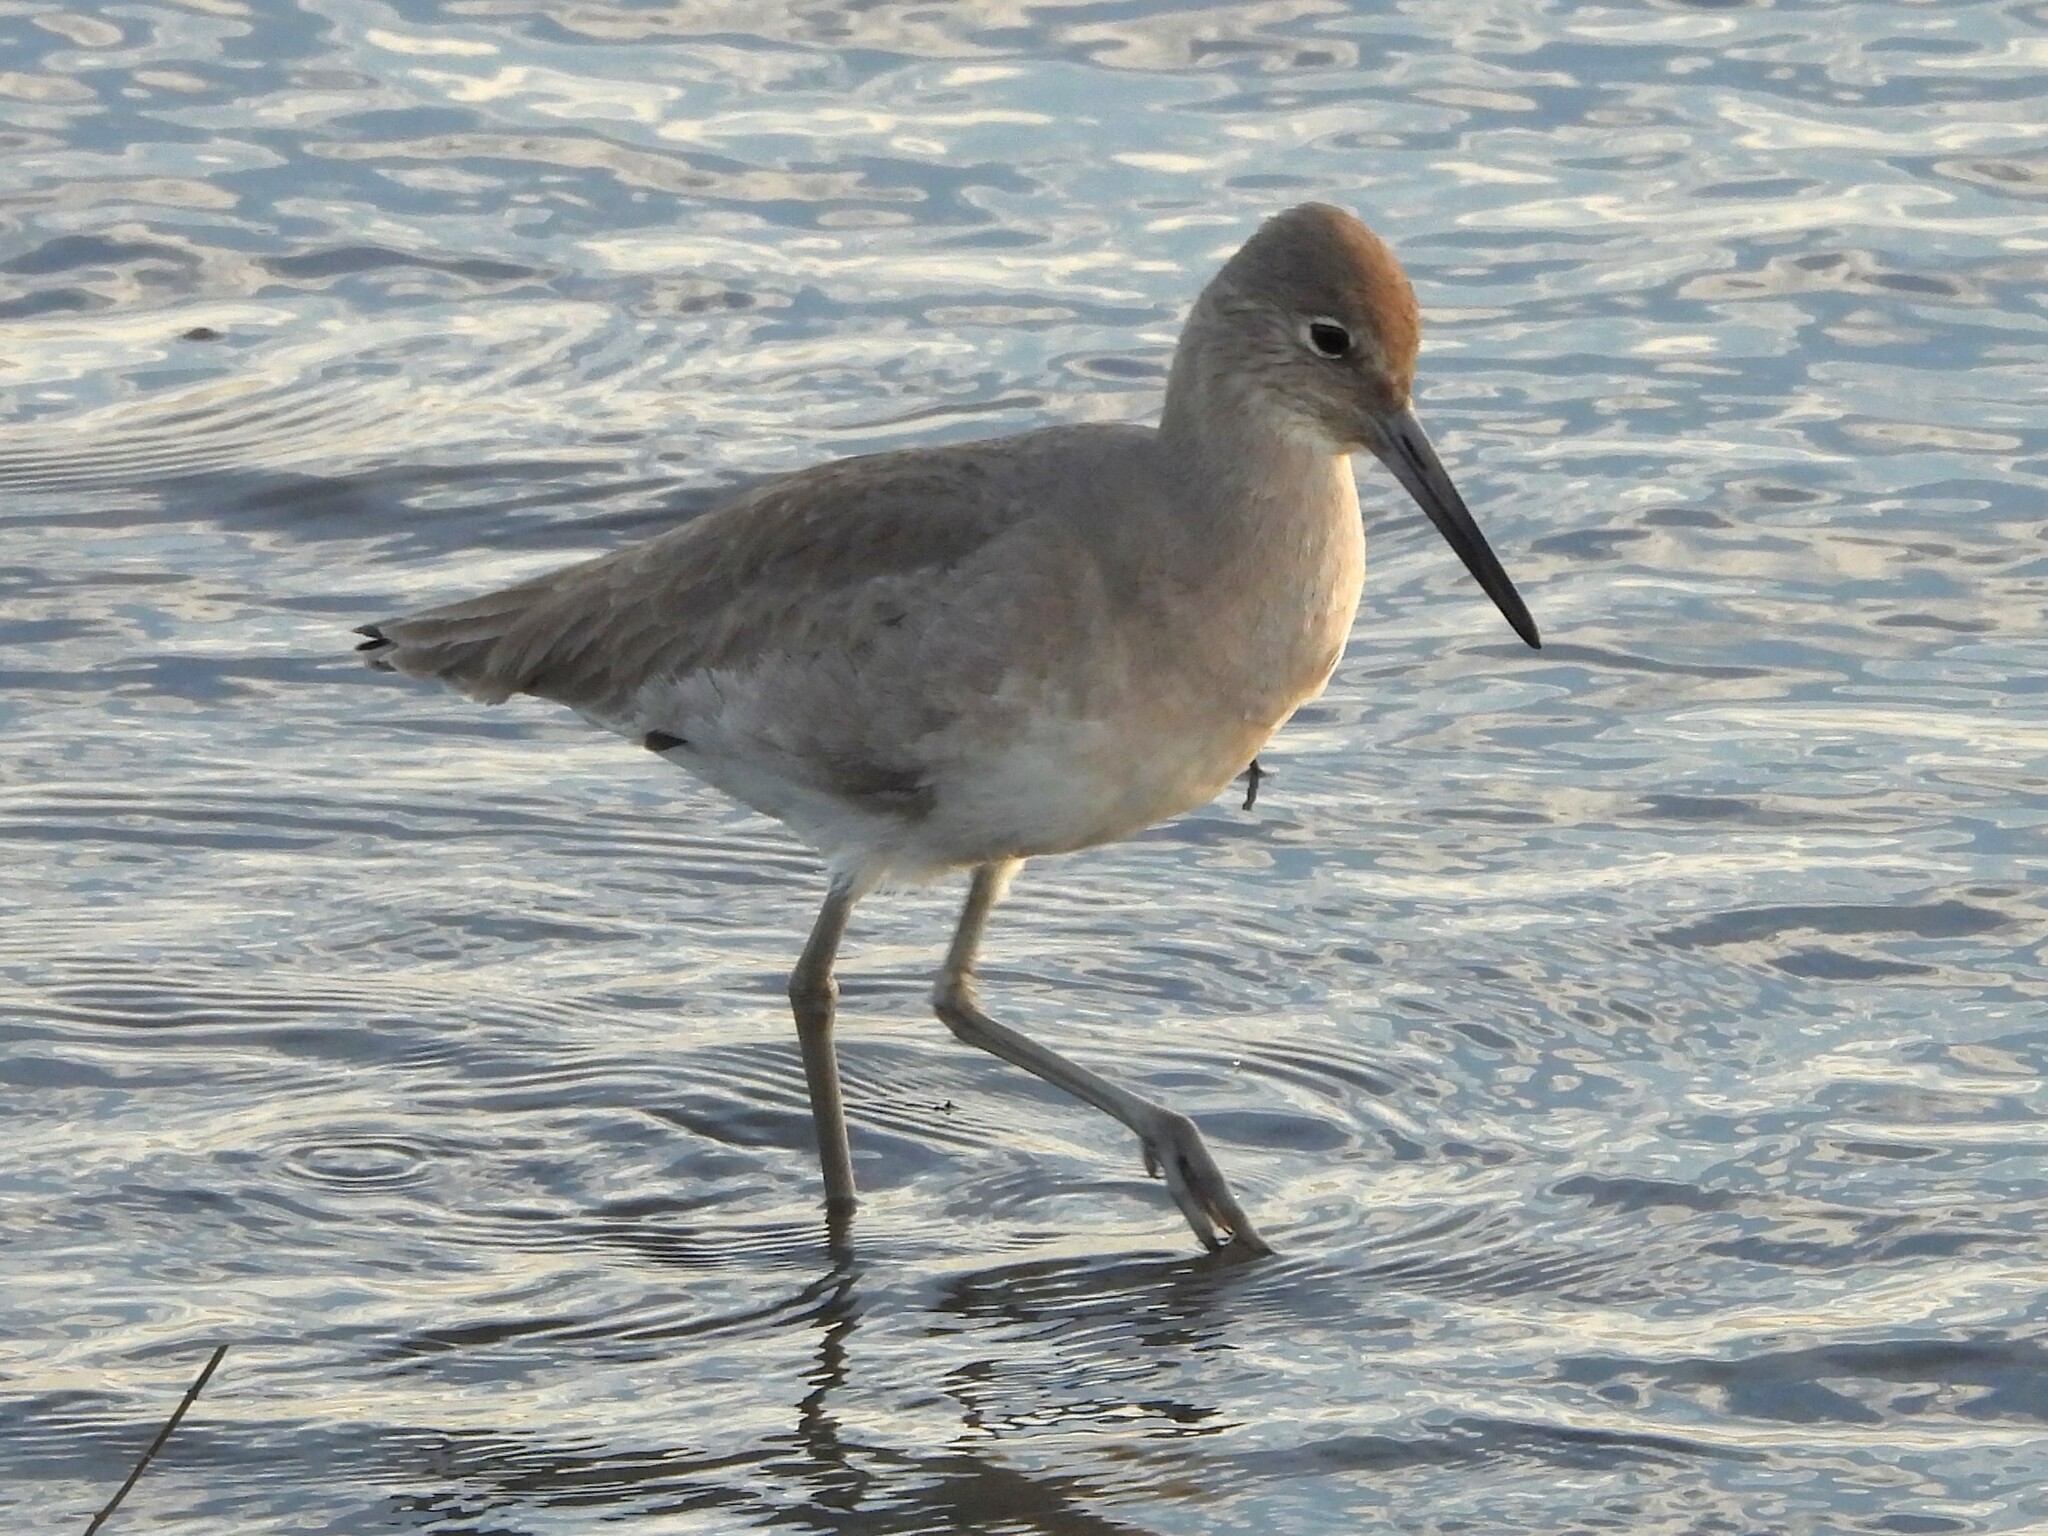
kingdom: Animalia
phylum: Chordata
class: Aves
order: Charadriiformes
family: Scolopacidae
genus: Tringa
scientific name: Tringa semipalmata
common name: Willet
